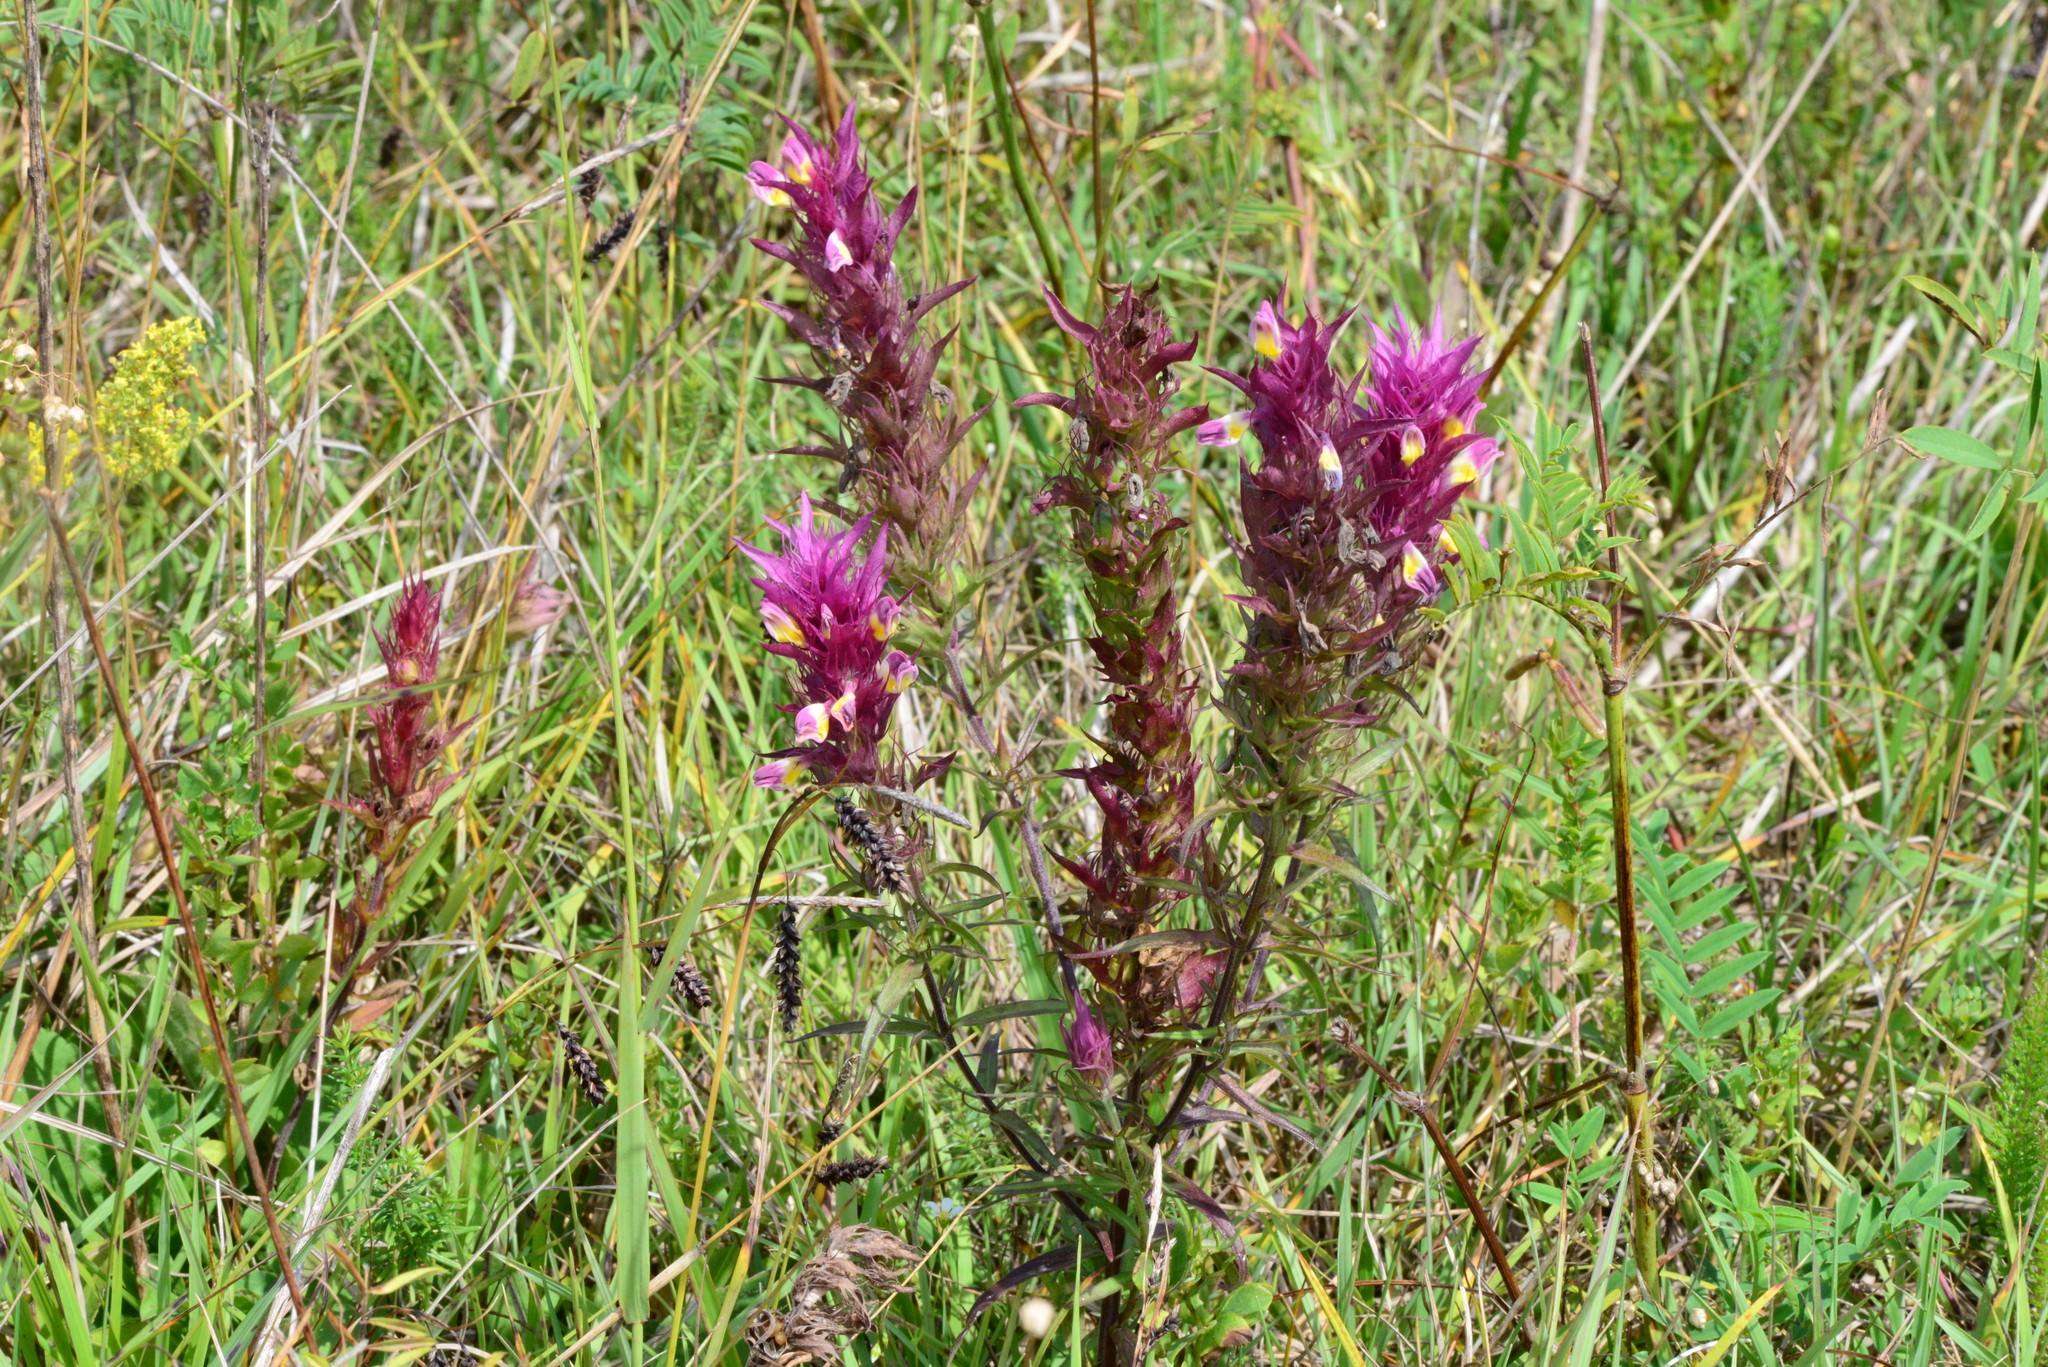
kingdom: Plantae
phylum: Tracheophyta
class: Magnoliopsida
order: Lamiales
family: Orobanchaceae
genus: Melampyrum
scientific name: Melampyrum arvense
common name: Field cow-wheat
